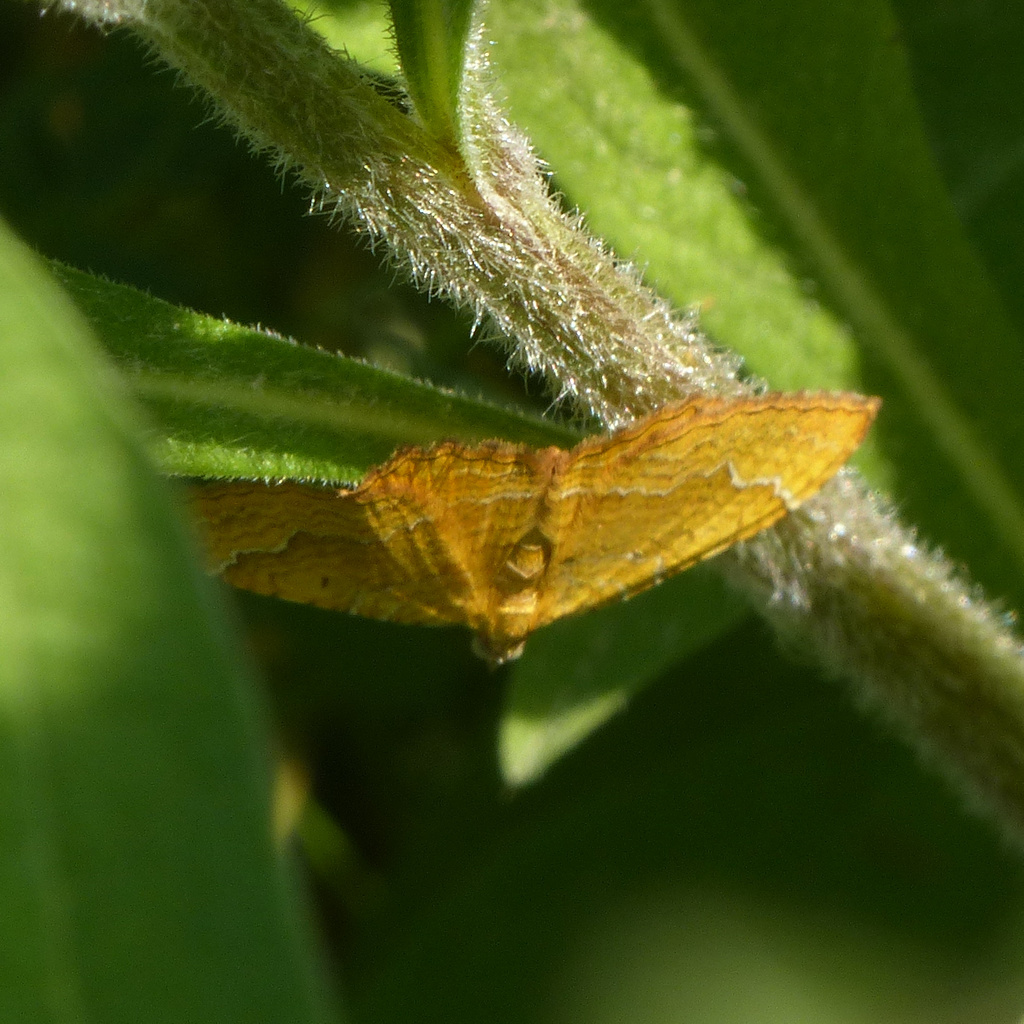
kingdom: Animalia
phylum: Arthropoda
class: Insecta
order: Lepidoptera
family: Geometridae
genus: Camptogramma
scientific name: Camptogramma bilineata
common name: Yellow shell
